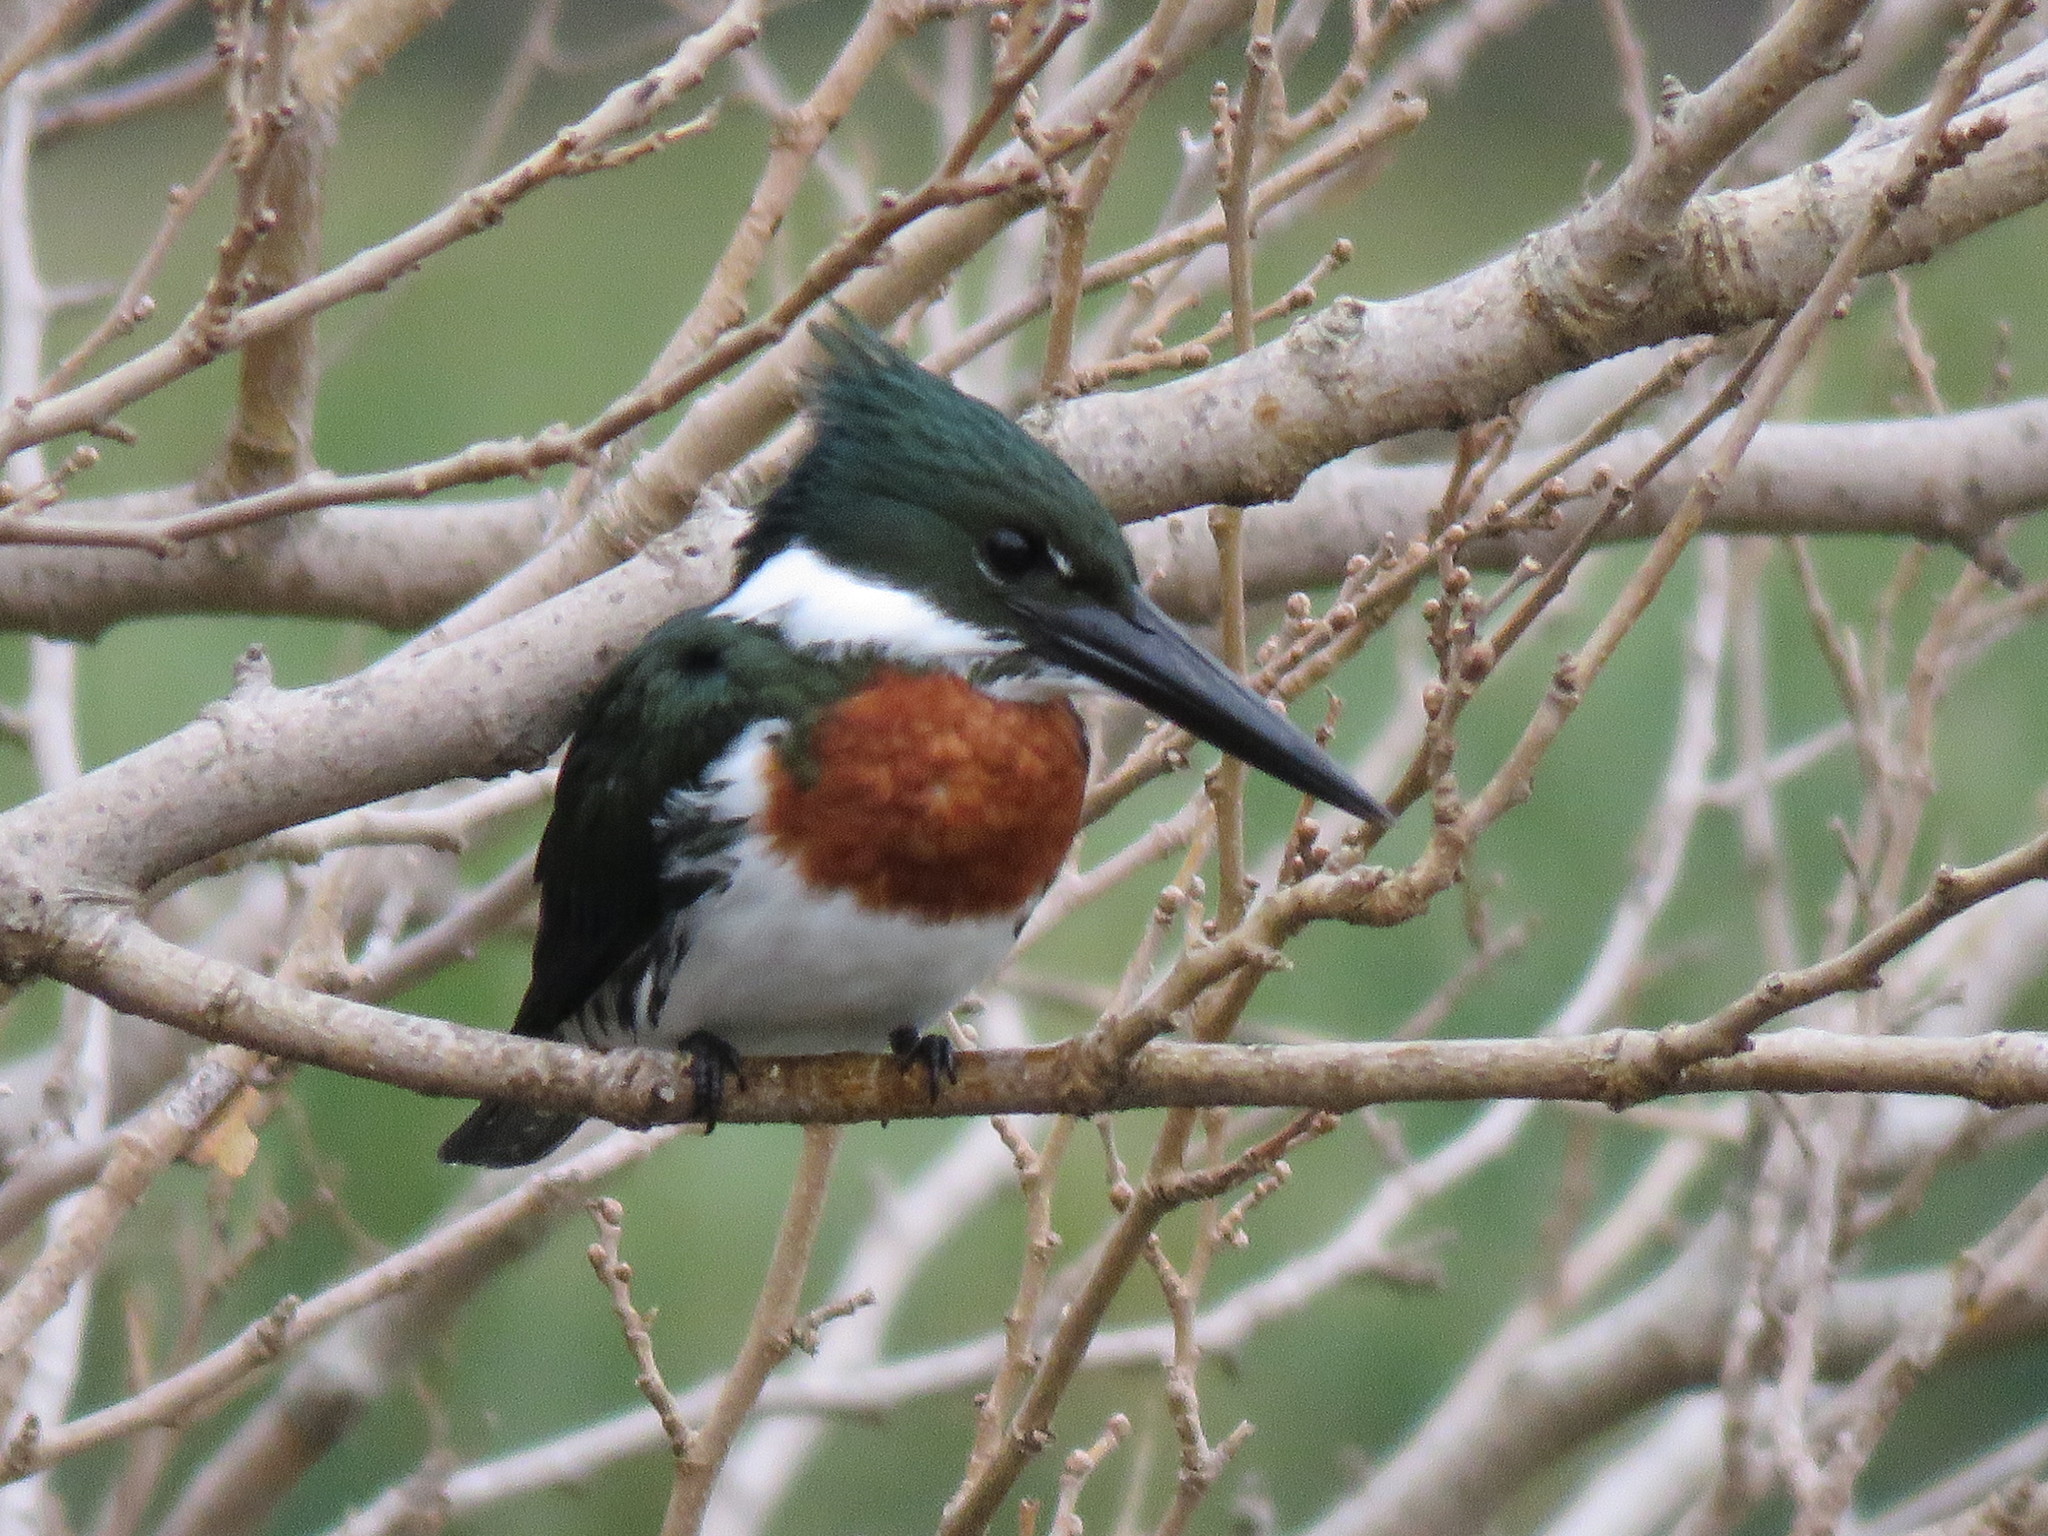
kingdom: Animalia
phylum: Chordata
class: Aves
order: Coraciiformes
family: Alcedinidae
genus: Chloroceryle
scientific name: Chloroceryle amazona
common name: Amazon kingfisher
